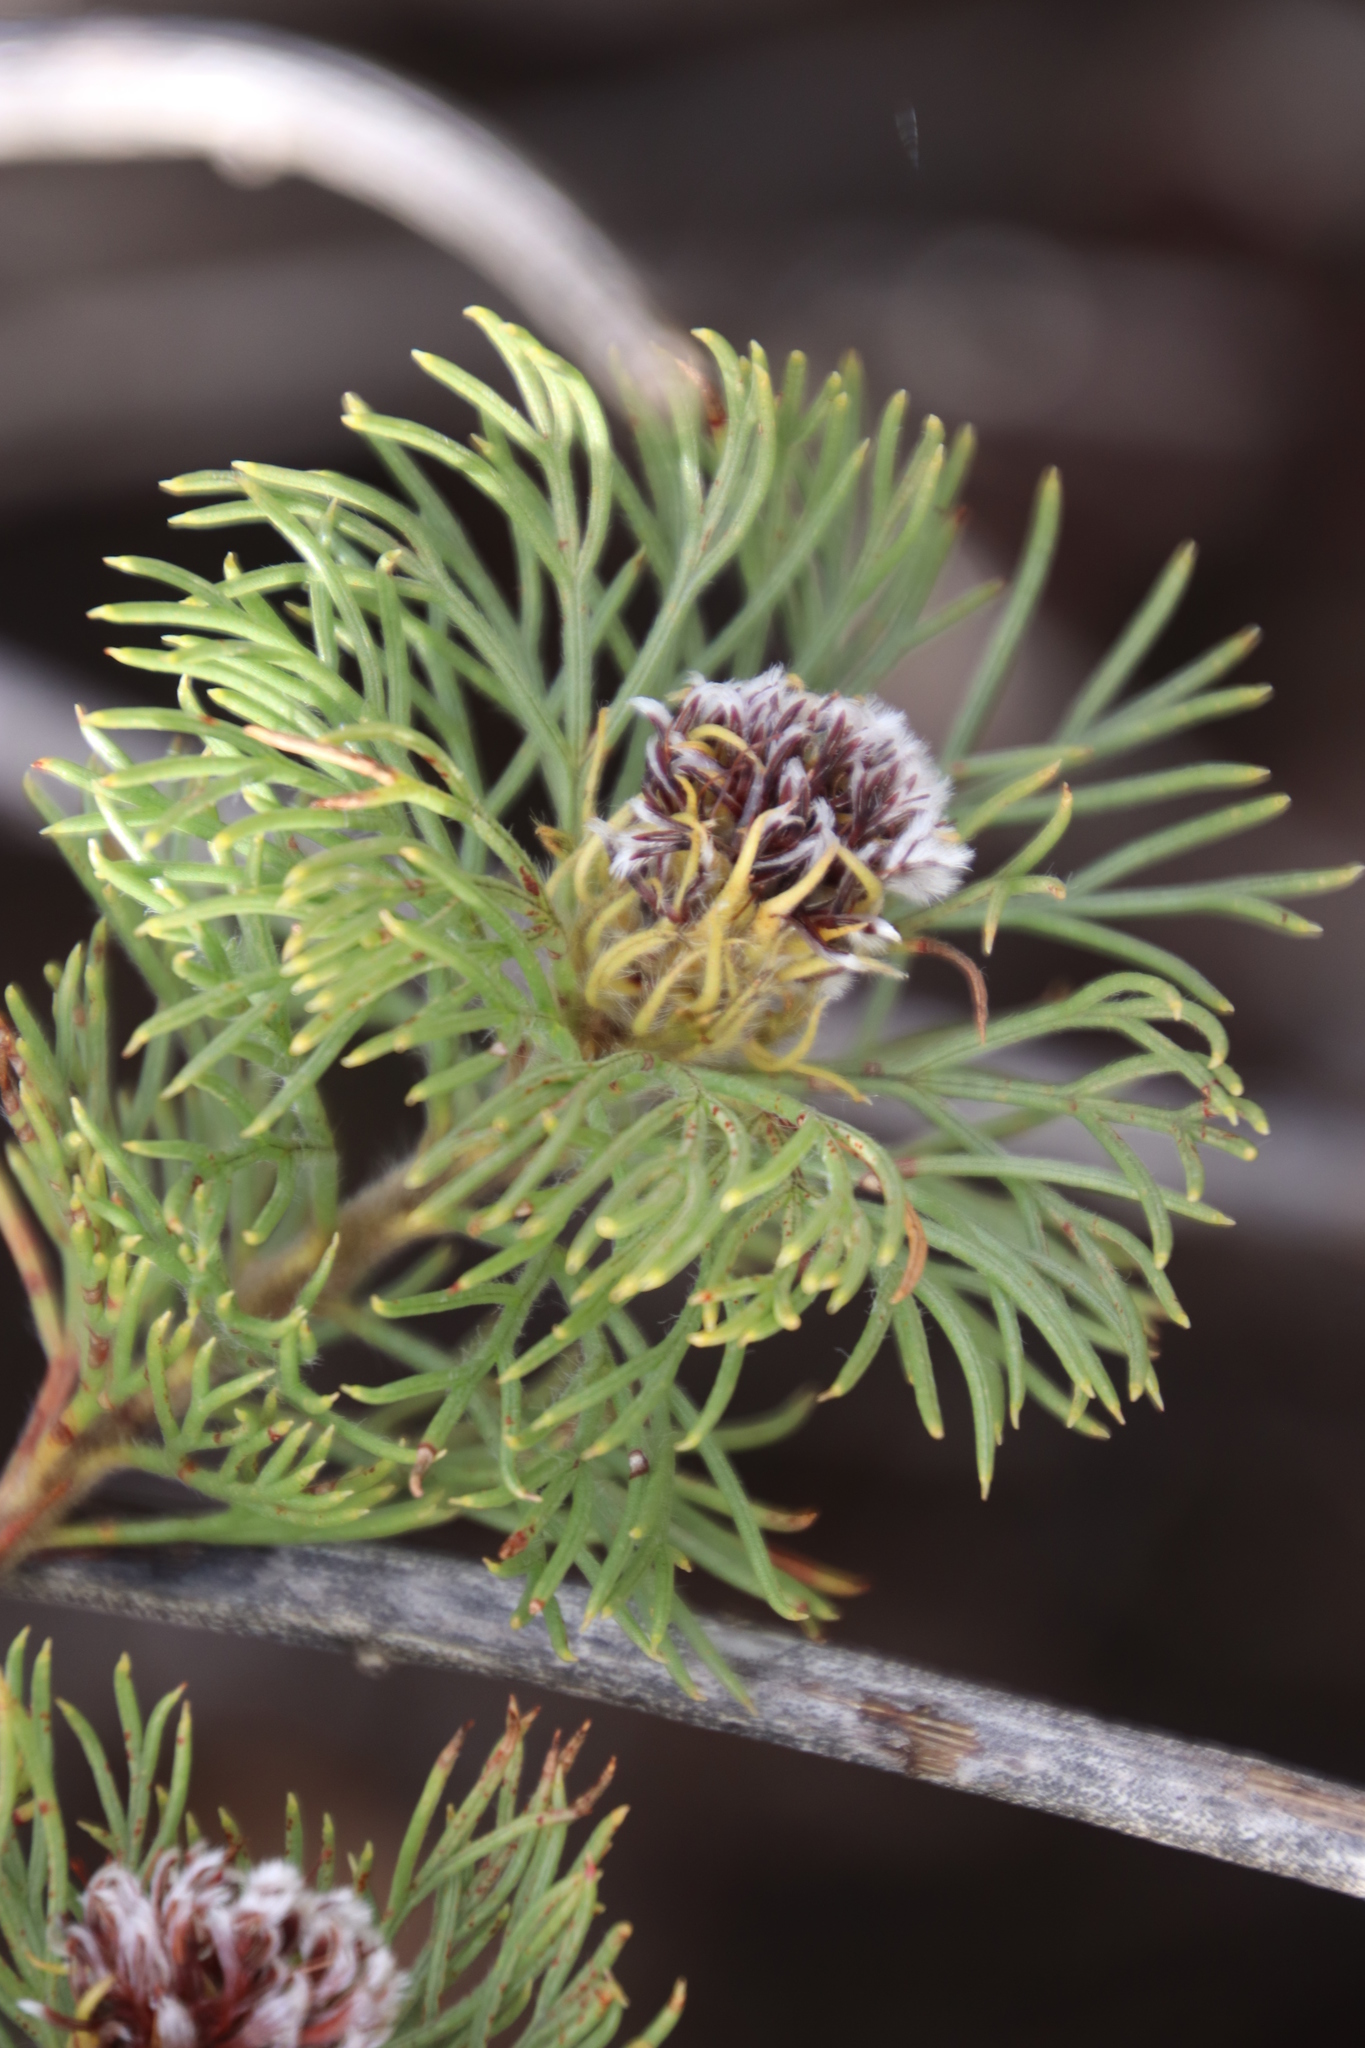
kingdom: Plantae
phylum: Tracheophyta
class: Magnoliopsida
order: Proteales
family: Proteaceae
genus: Serruria
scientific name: Serruria villosa
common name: Golden spiderhead
